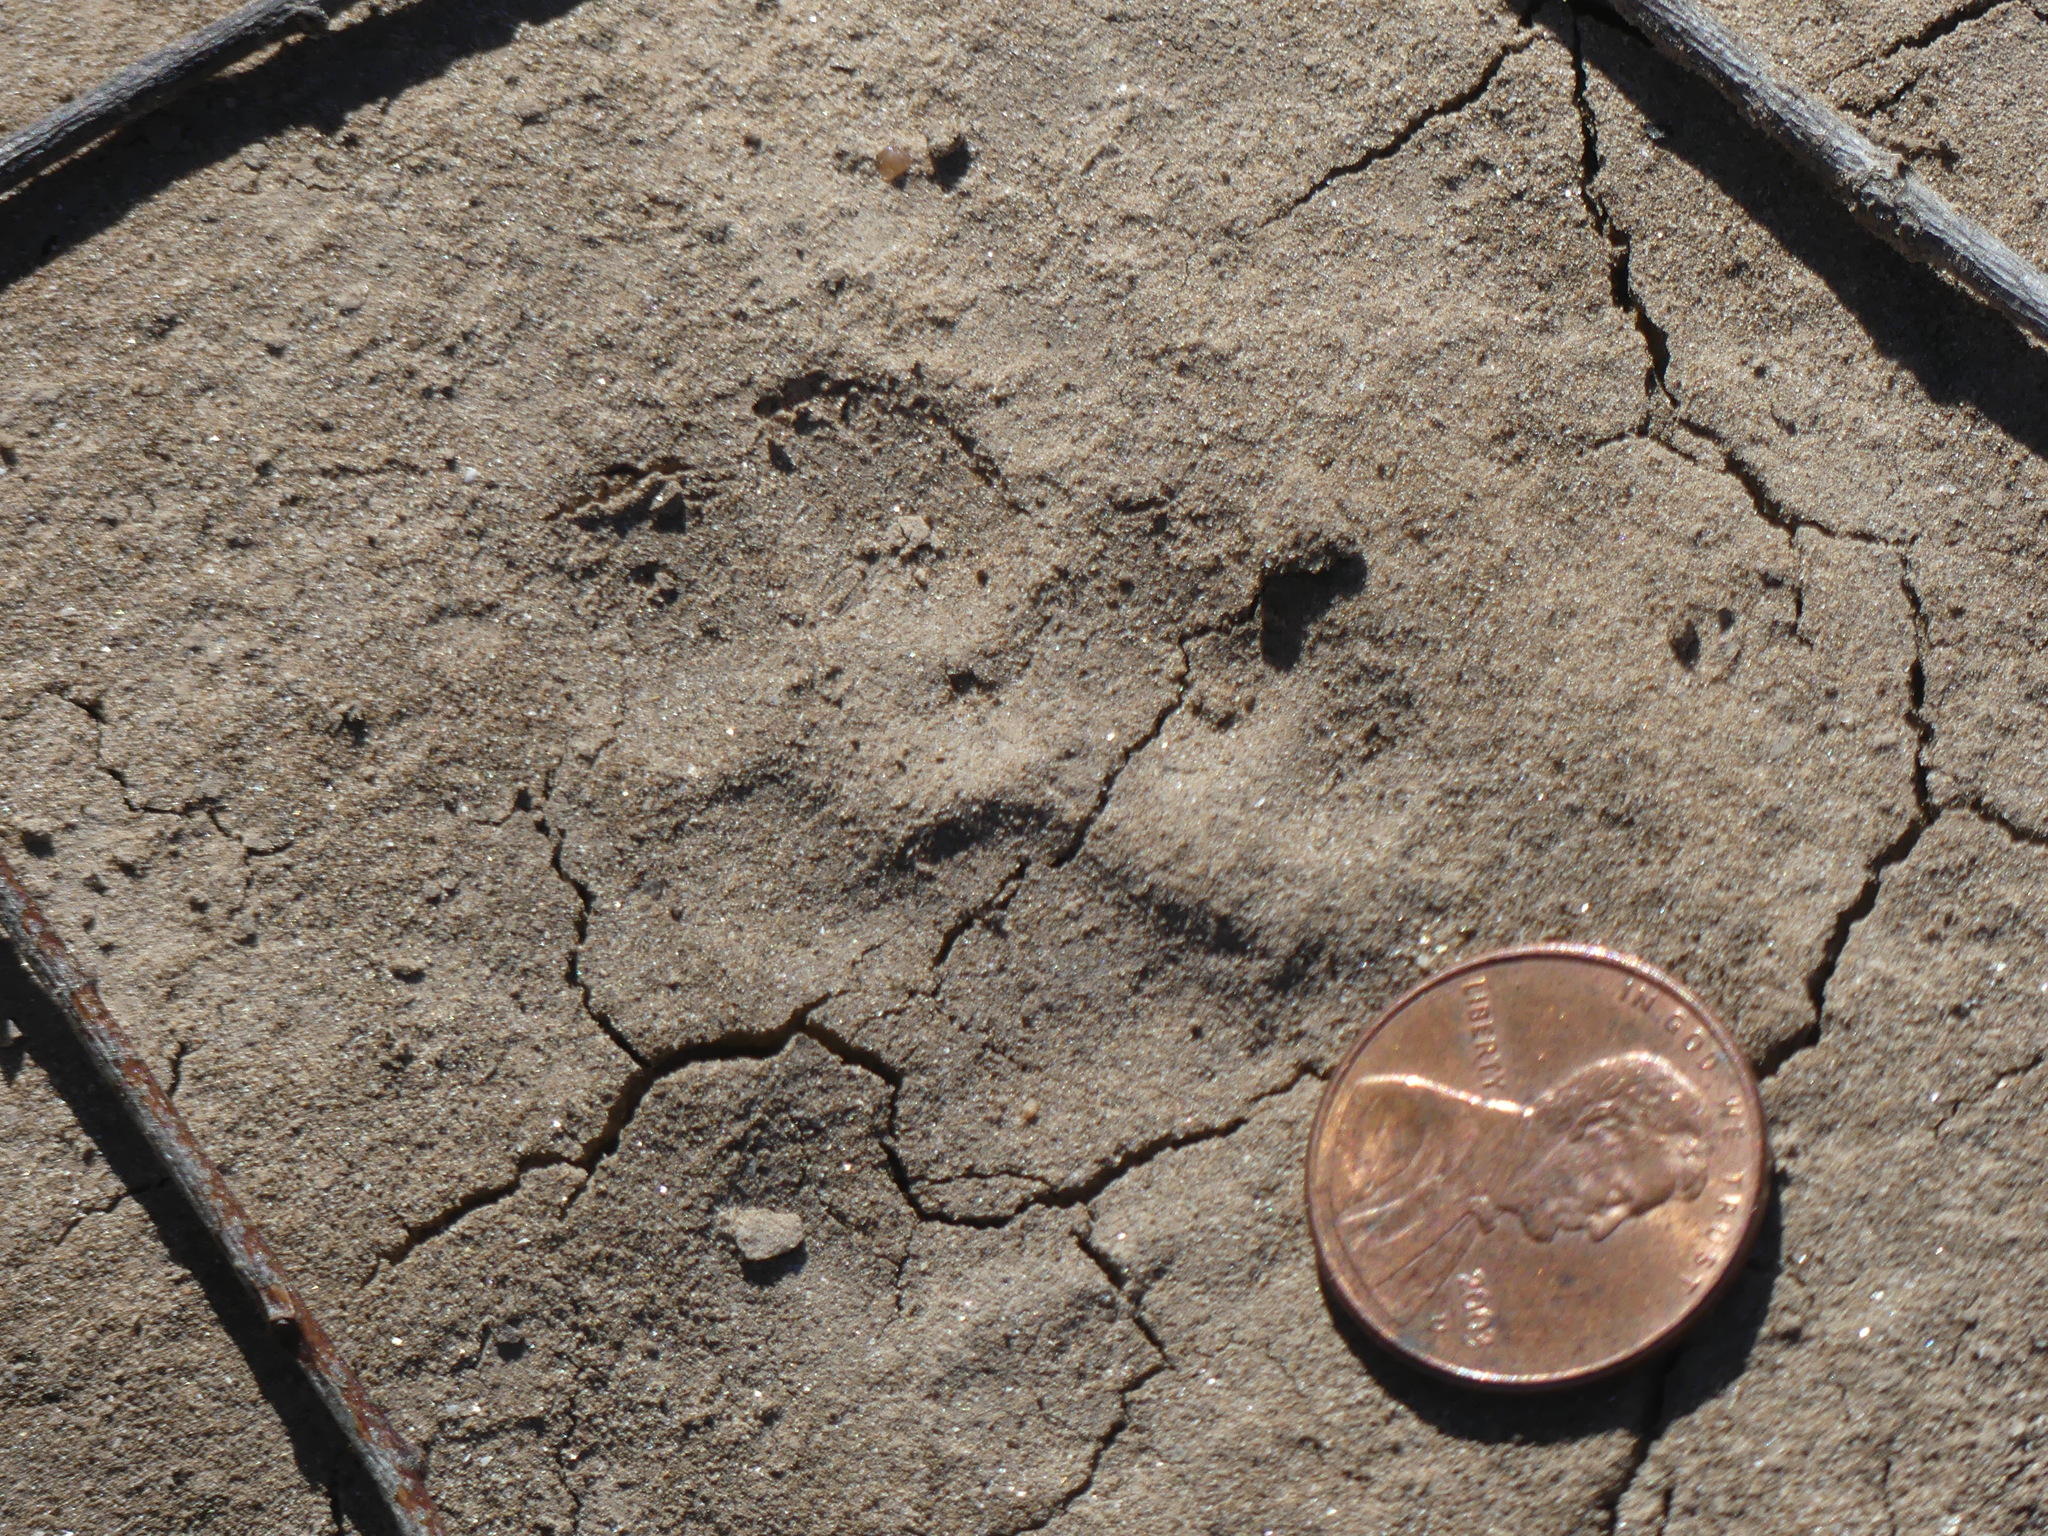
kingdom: Animalia
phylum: Chordata
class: Mammalia
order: Carnivora
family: Canidae
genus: Urocyon
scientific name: Urocyon cinereoargenteus
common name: Gray fox
